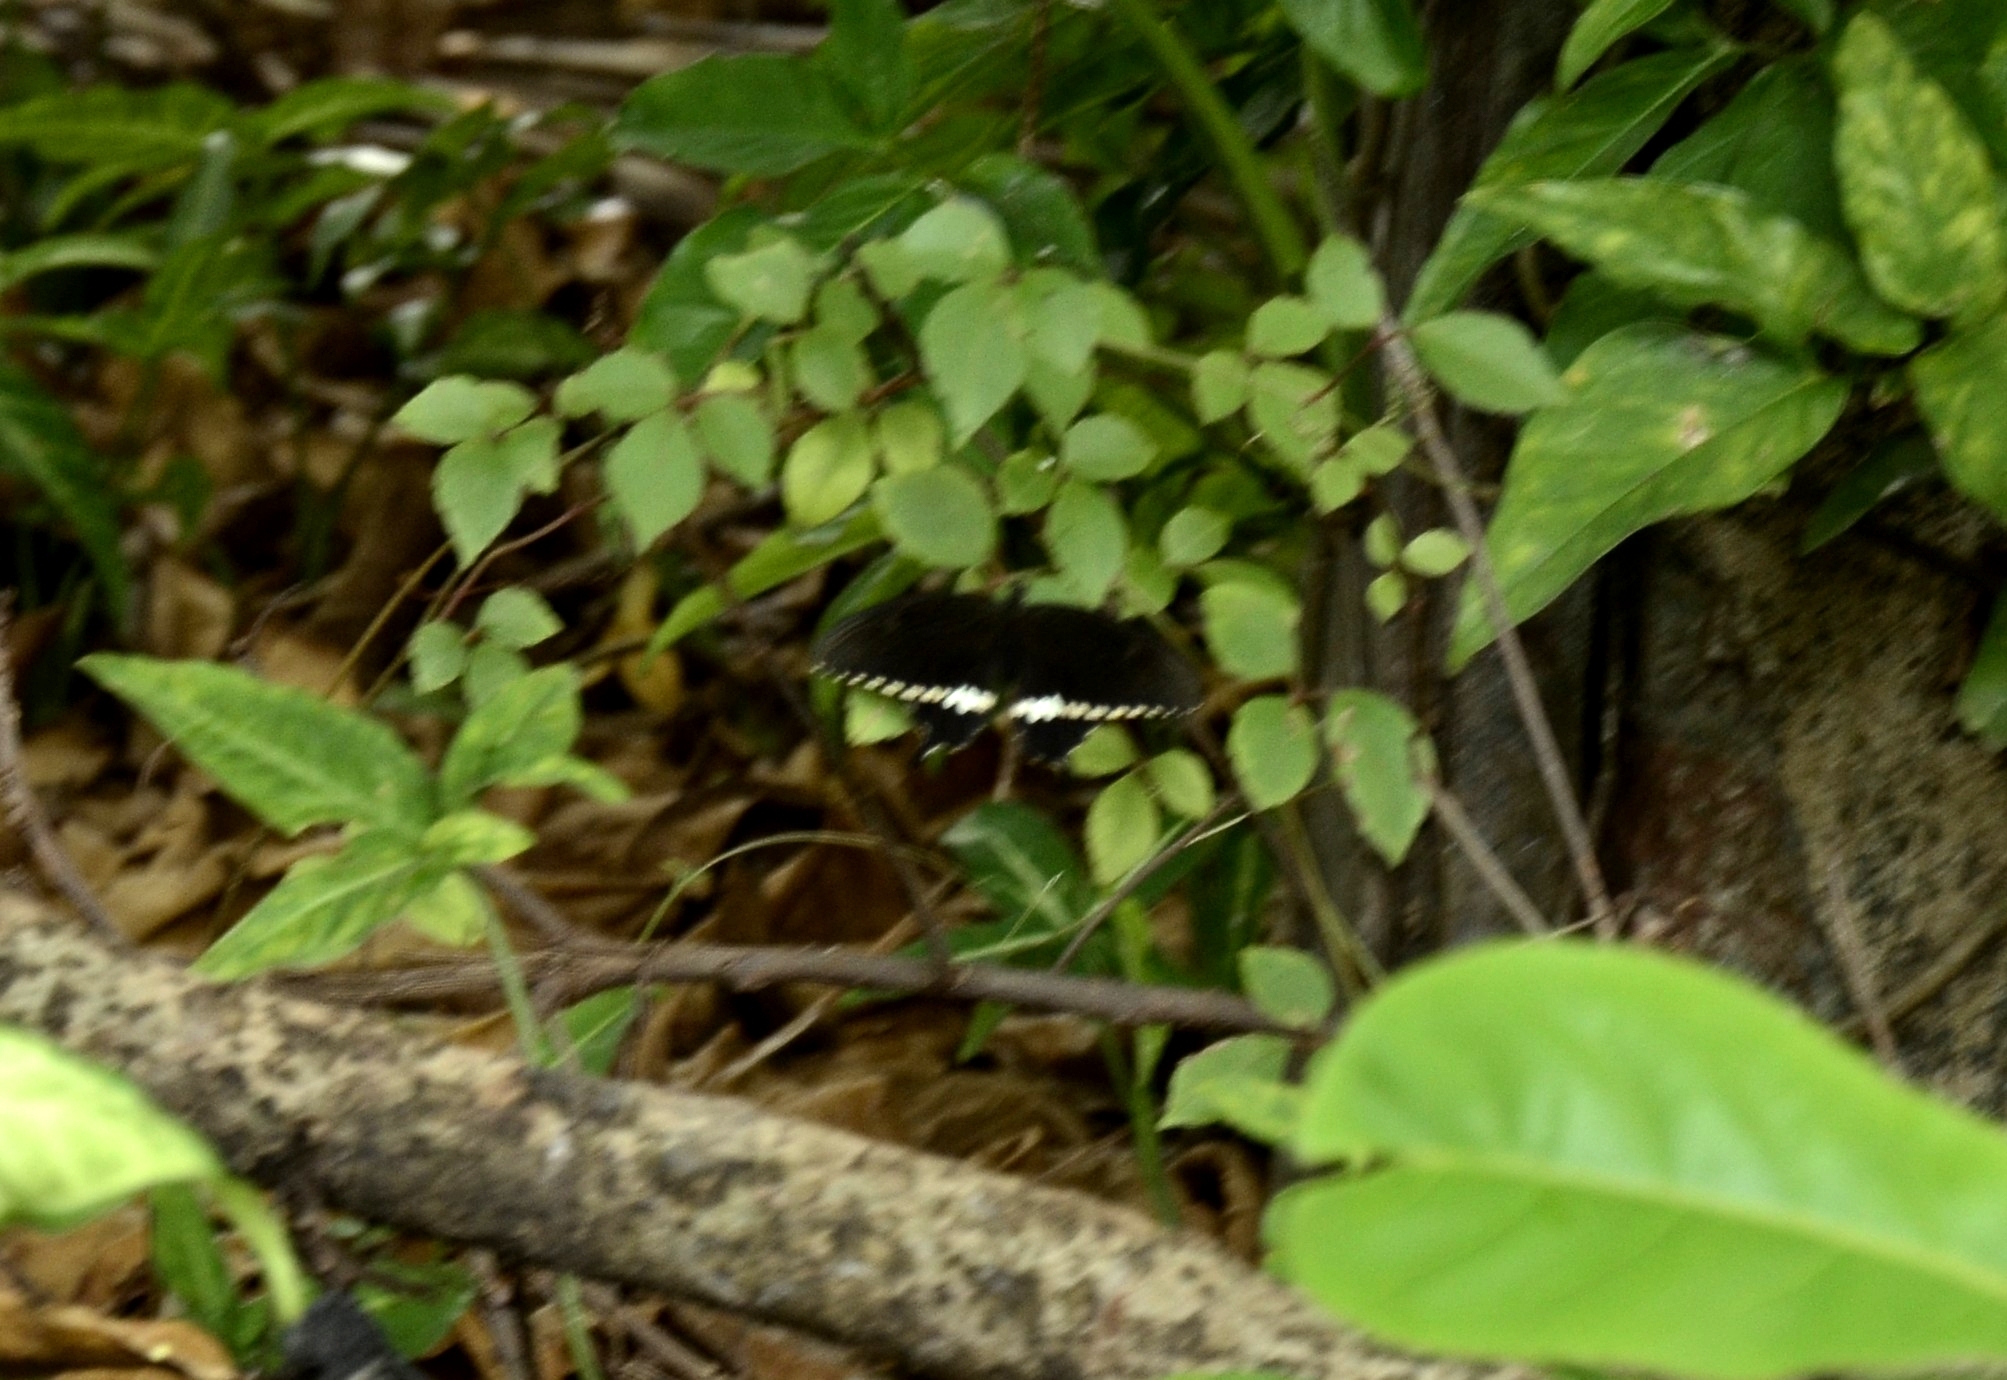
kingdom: Animalia
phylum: Arthropoda
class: Insecta
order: Lepidoptera
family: Papilionidae
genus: Papilio
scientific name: Papilio polytes
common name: Common mormon
